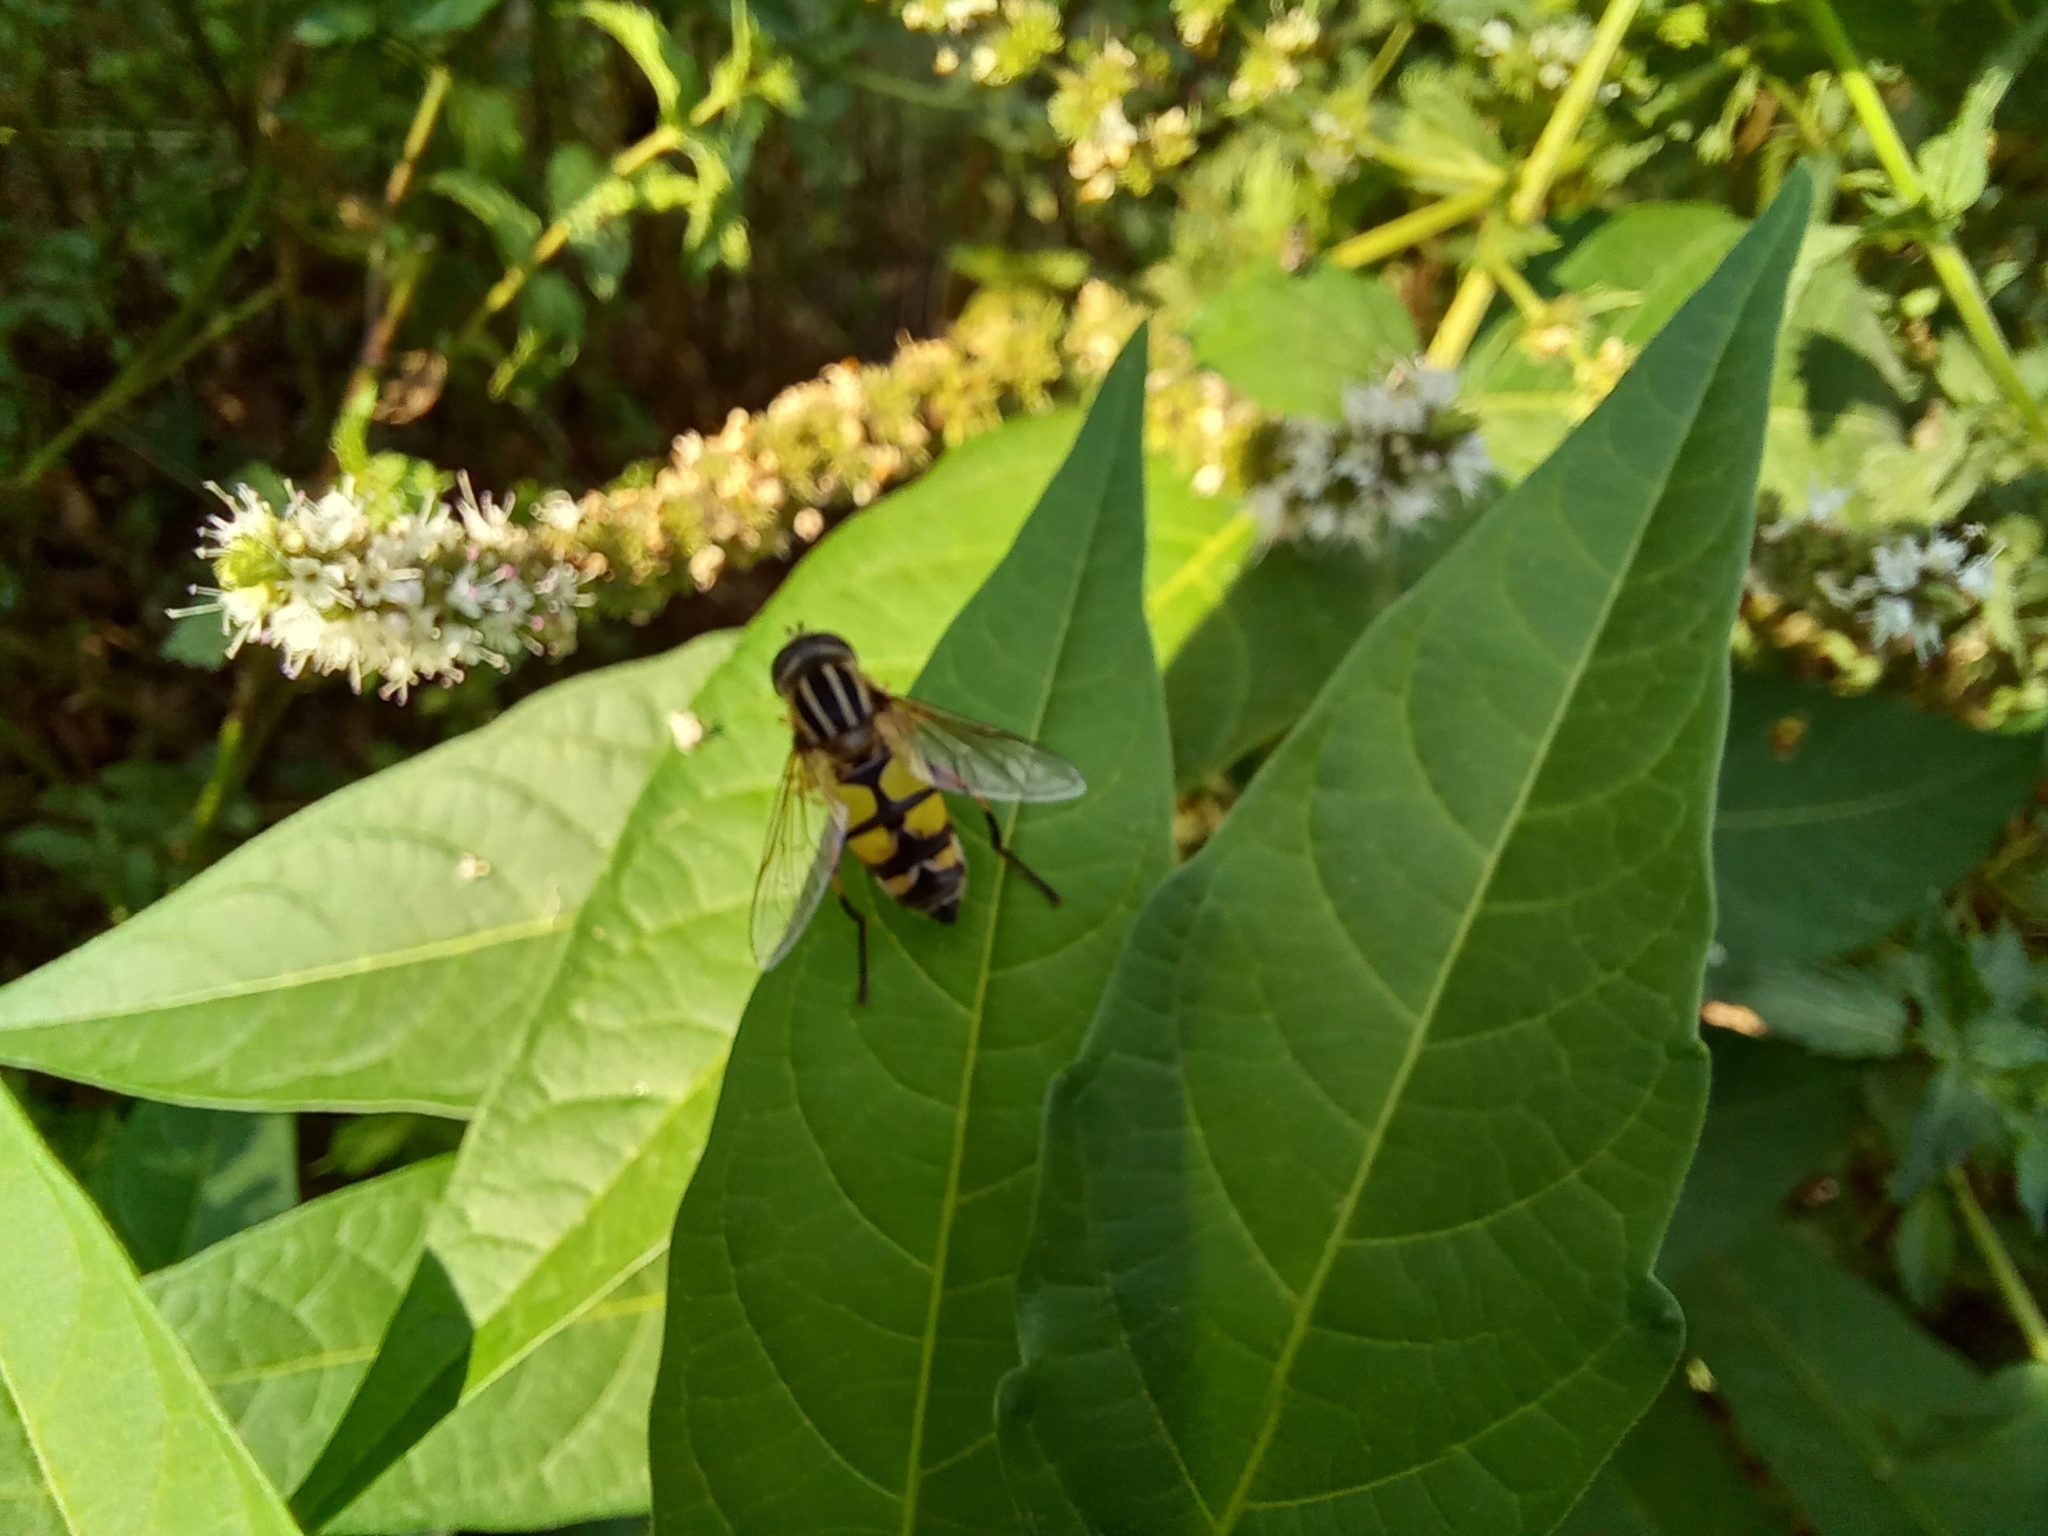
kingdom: Animalia
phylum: Arthropoda
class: Insecta
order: Diptera
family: Syrphidae
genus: Helophilus
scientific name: Helophilus trivittatus
